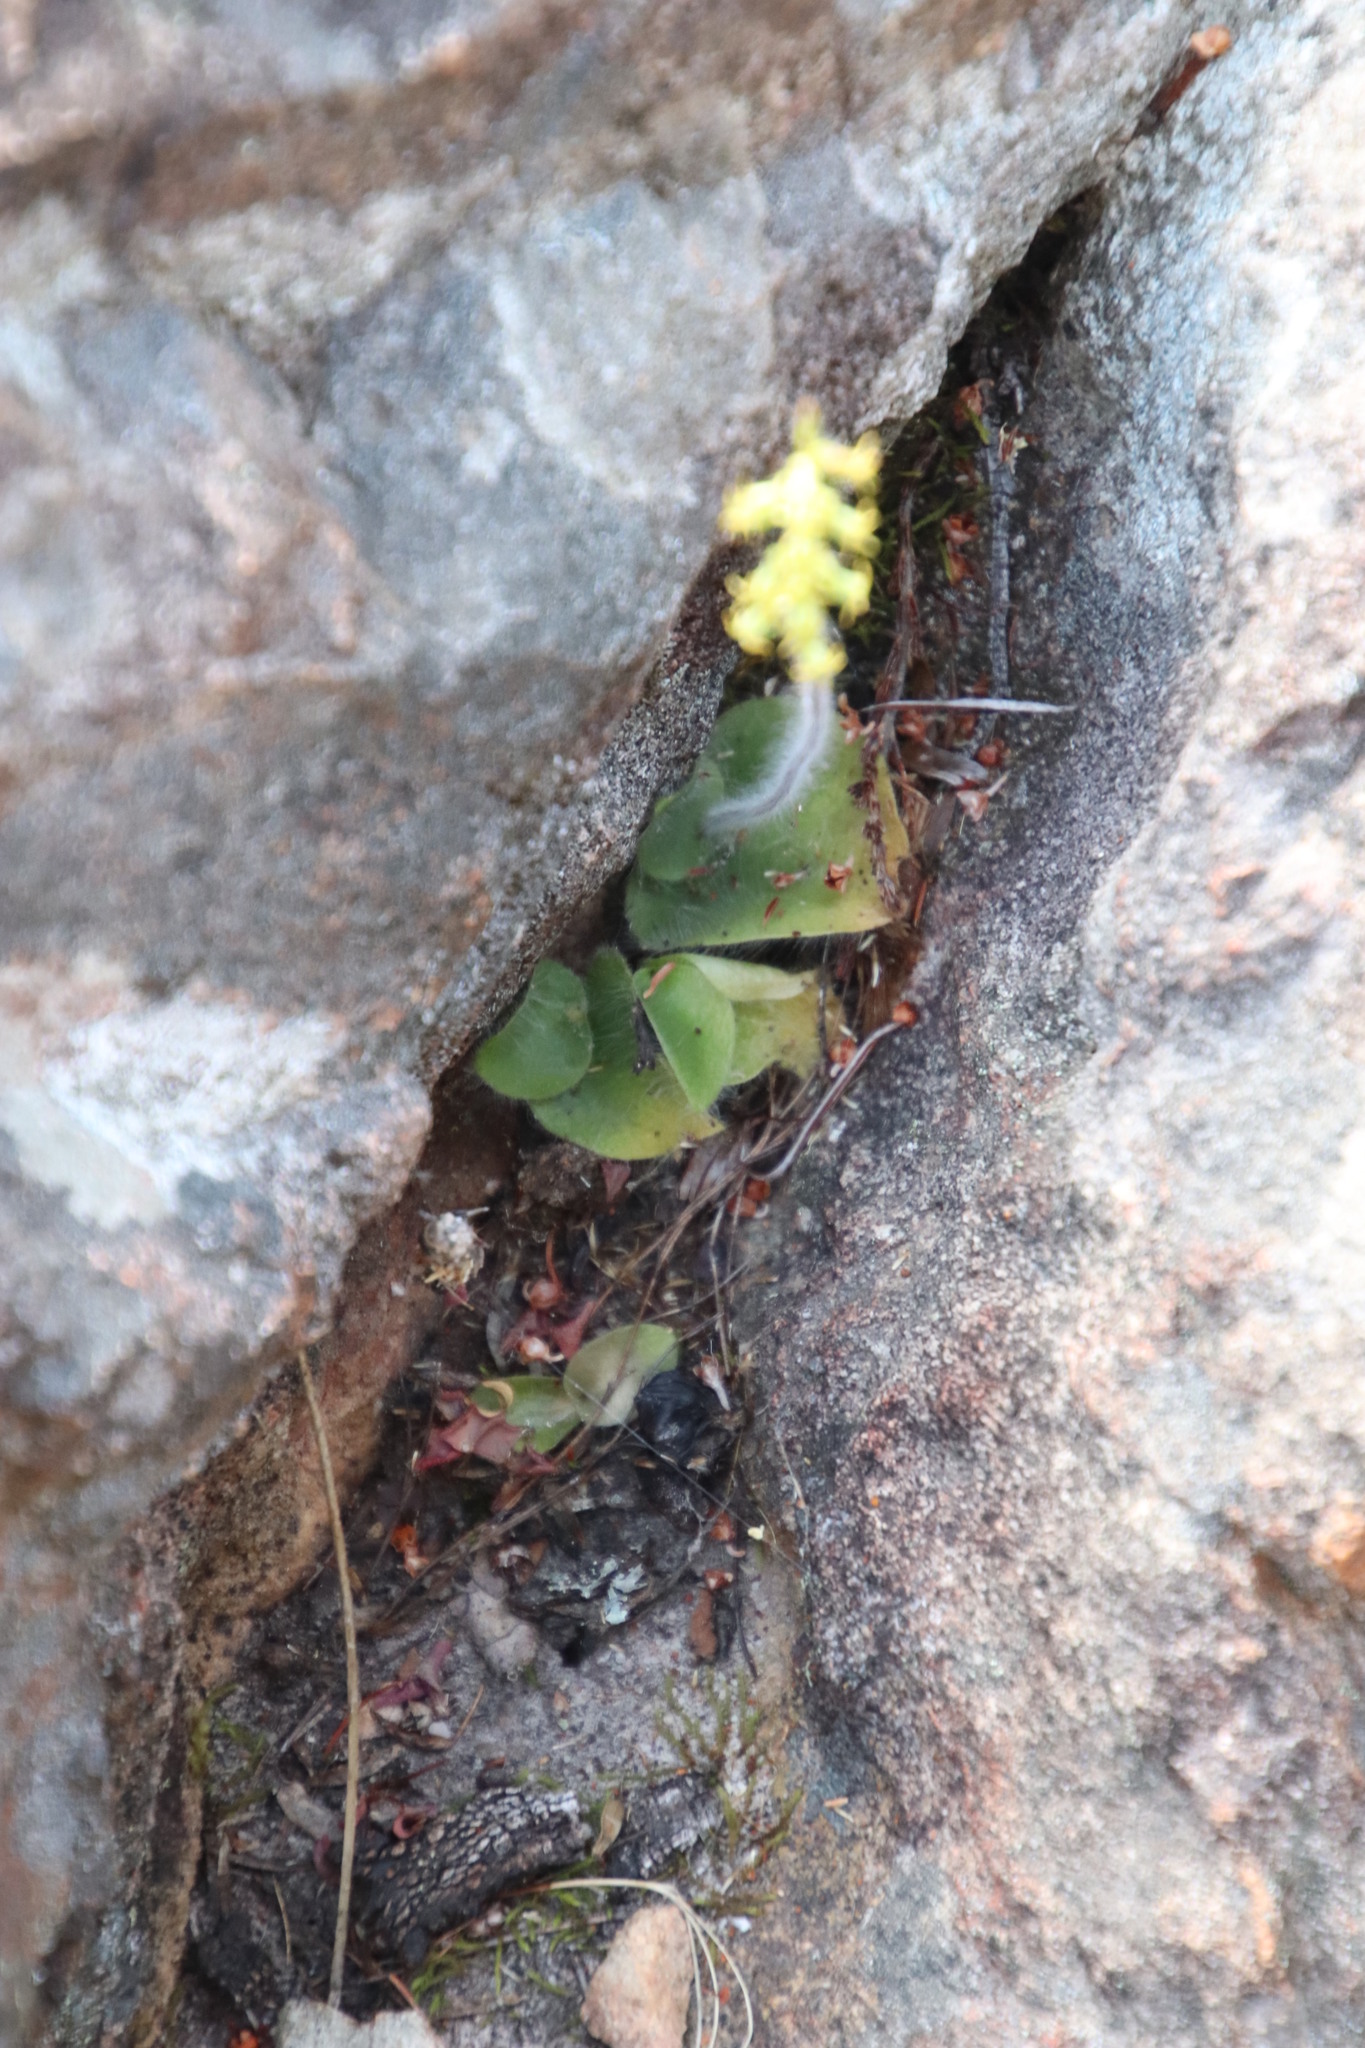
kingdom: Plantae
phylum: Tracheophyta
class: Liliopsida
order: Asparagales
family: Orchidaceae
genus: Holothrix
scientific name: Holothrix villosa
